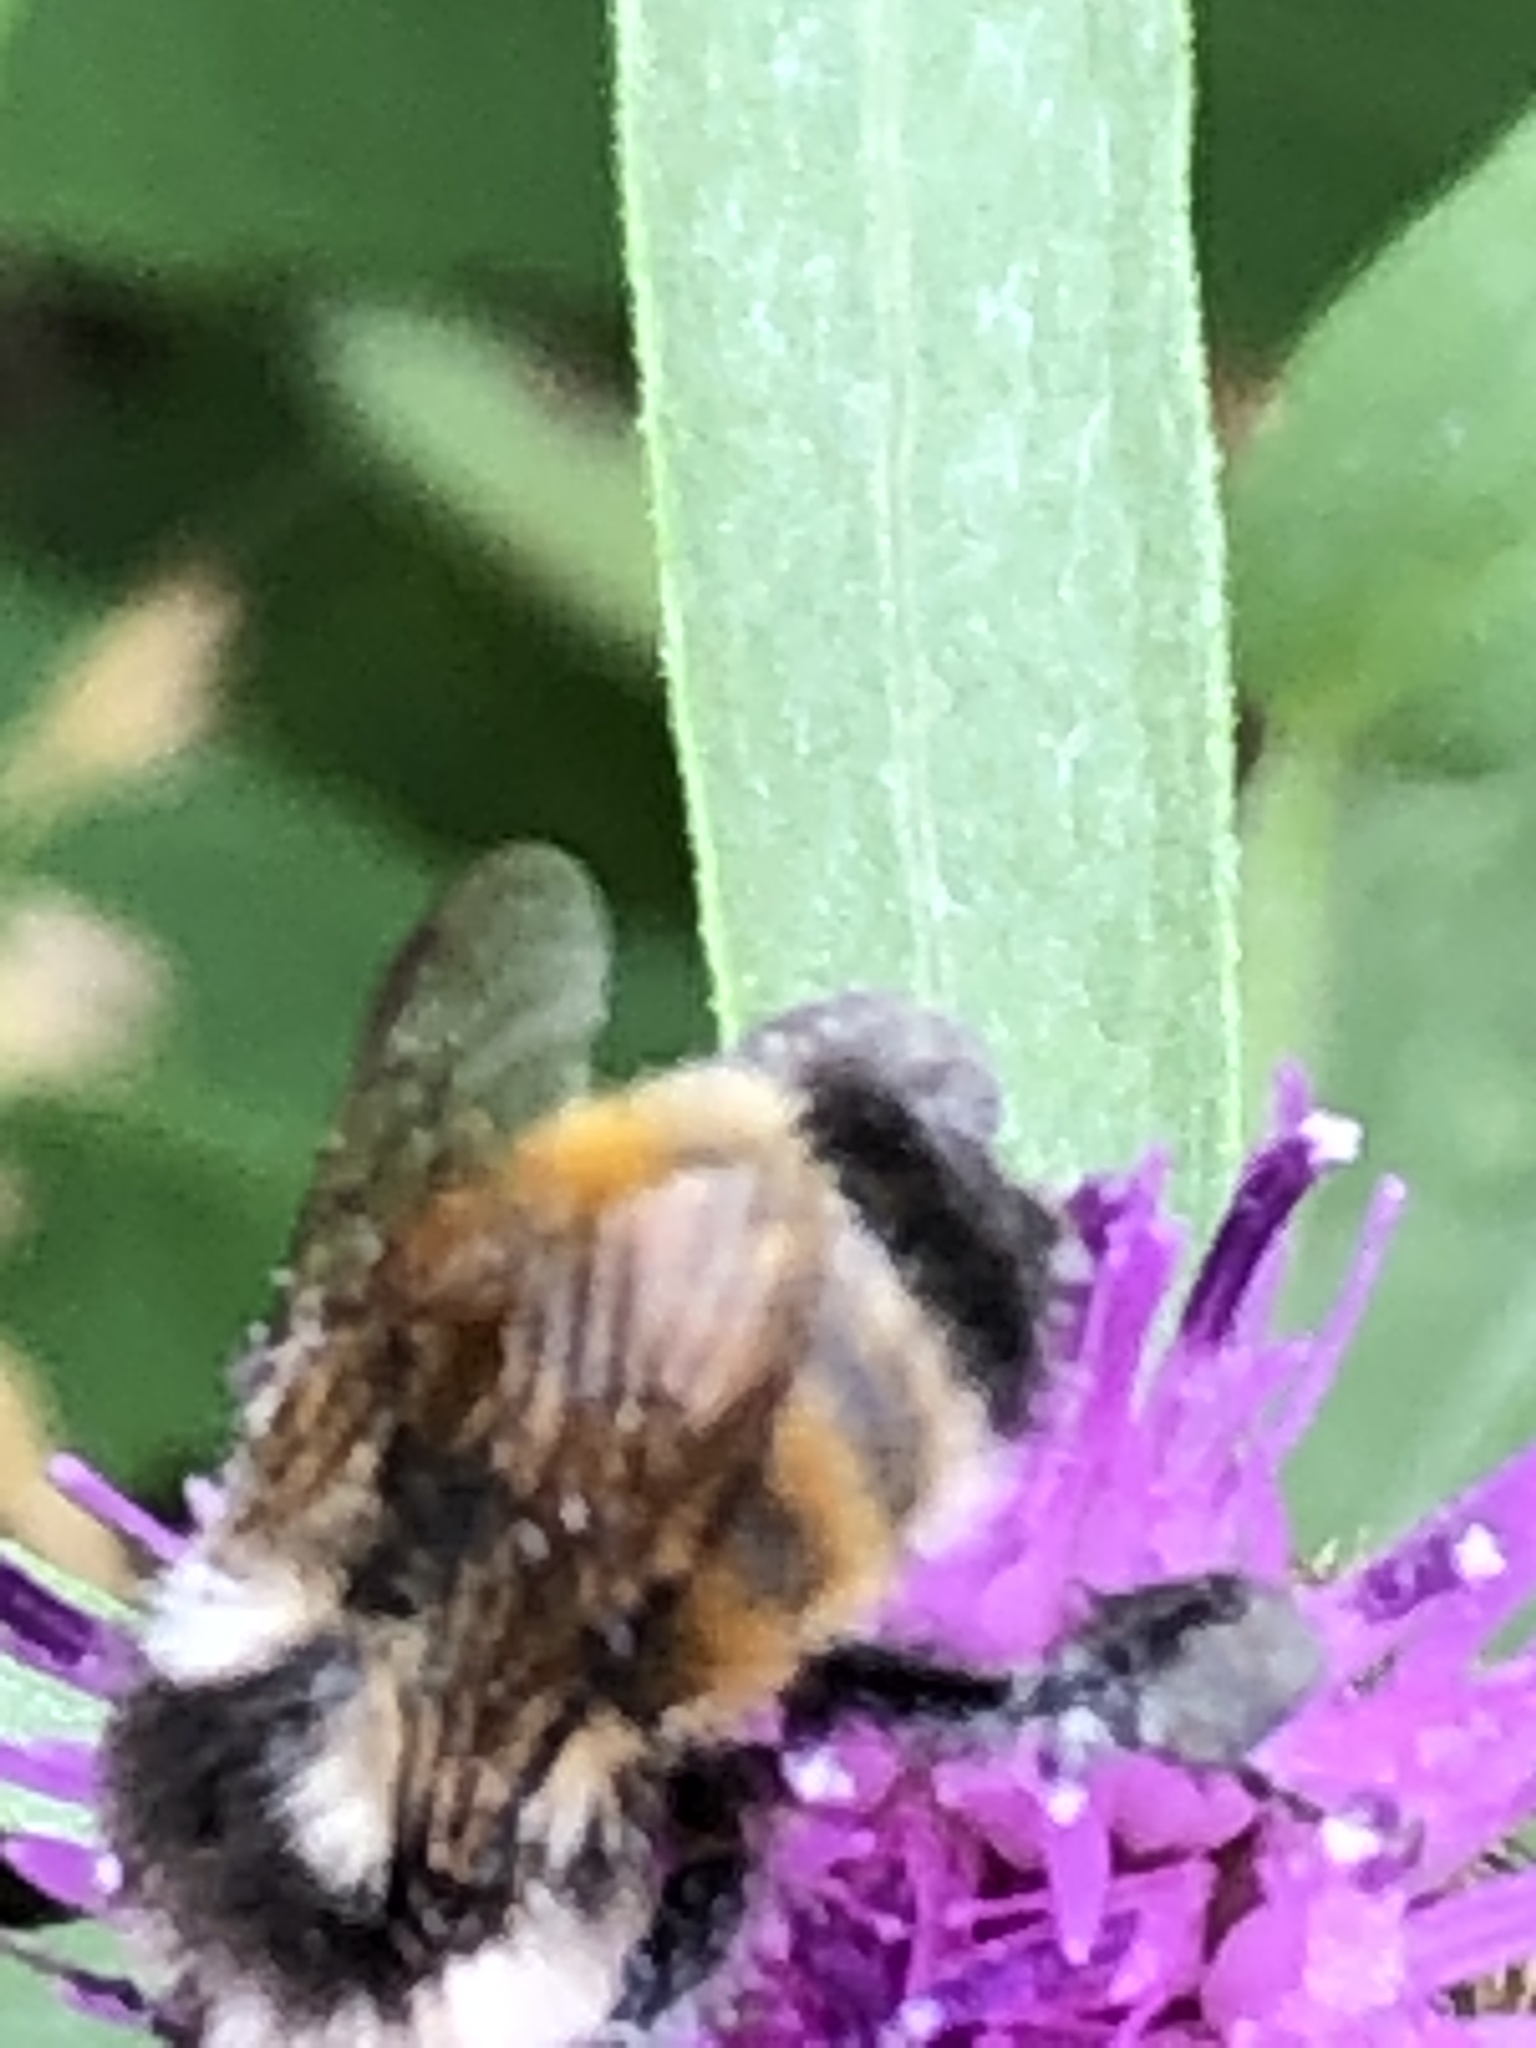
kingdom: Animalia
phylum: Arthropoda
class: Insecta
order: Hymenoptera
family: Apidae
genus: Bombus
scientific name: Bombus ternarius
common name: Tri-colored bumble bee
